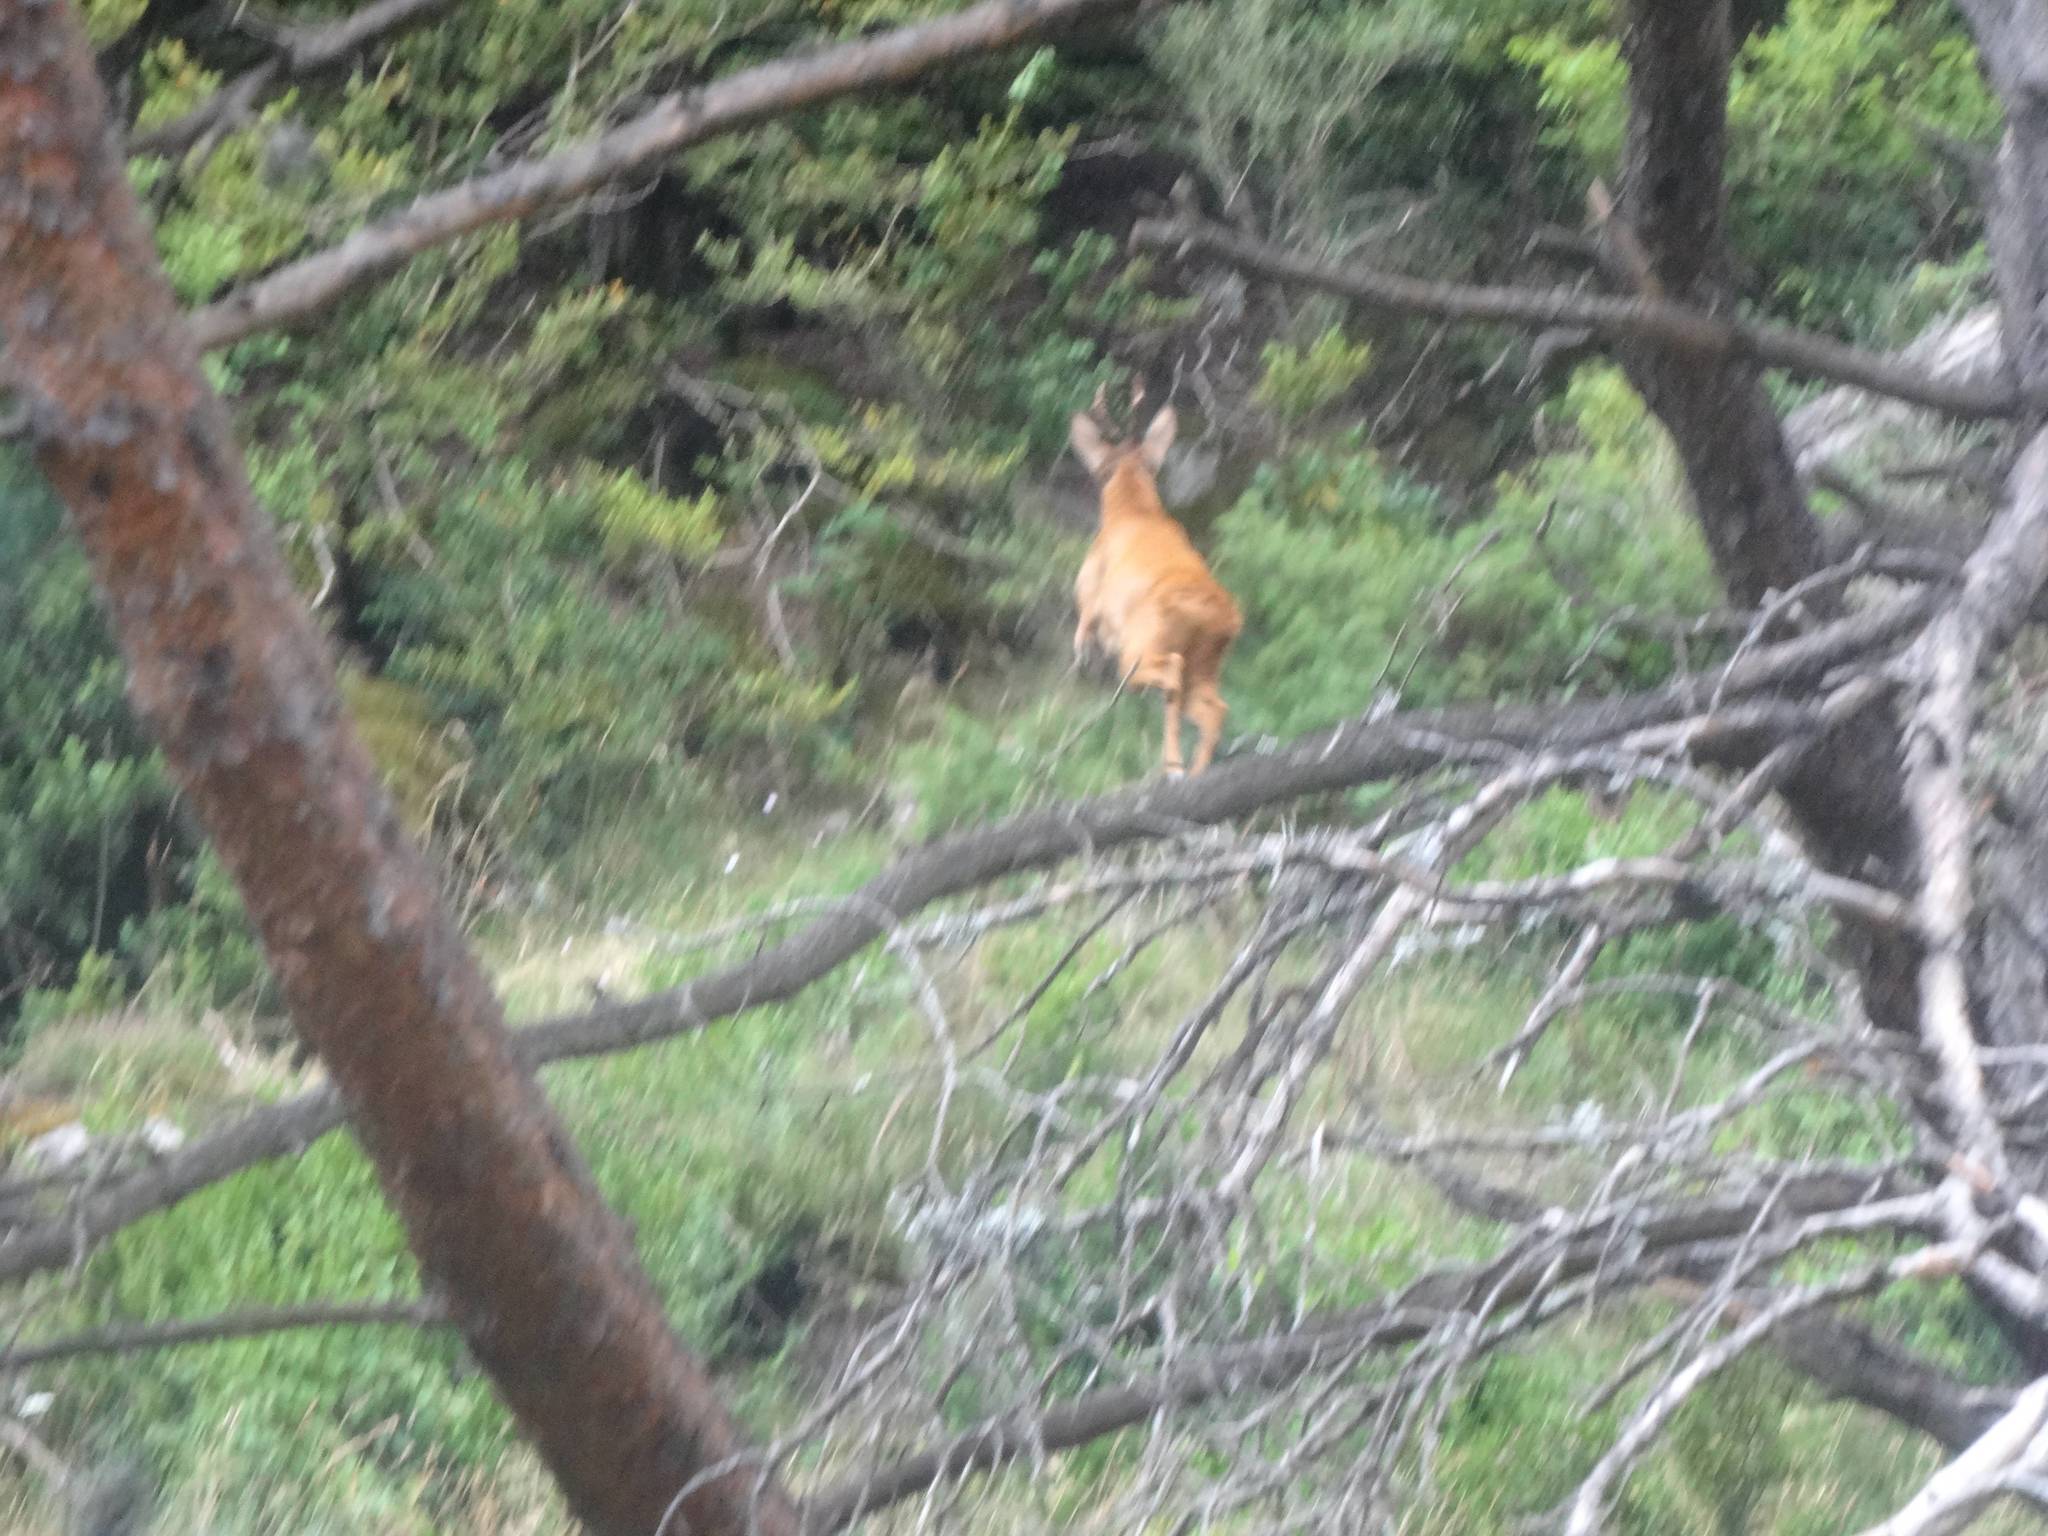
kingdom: Animalia
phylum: Chordata
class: Mammalia
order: Artiodactyla
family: Cervidae
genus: Cervus
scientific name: Cervus elaphus
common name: Red deer
